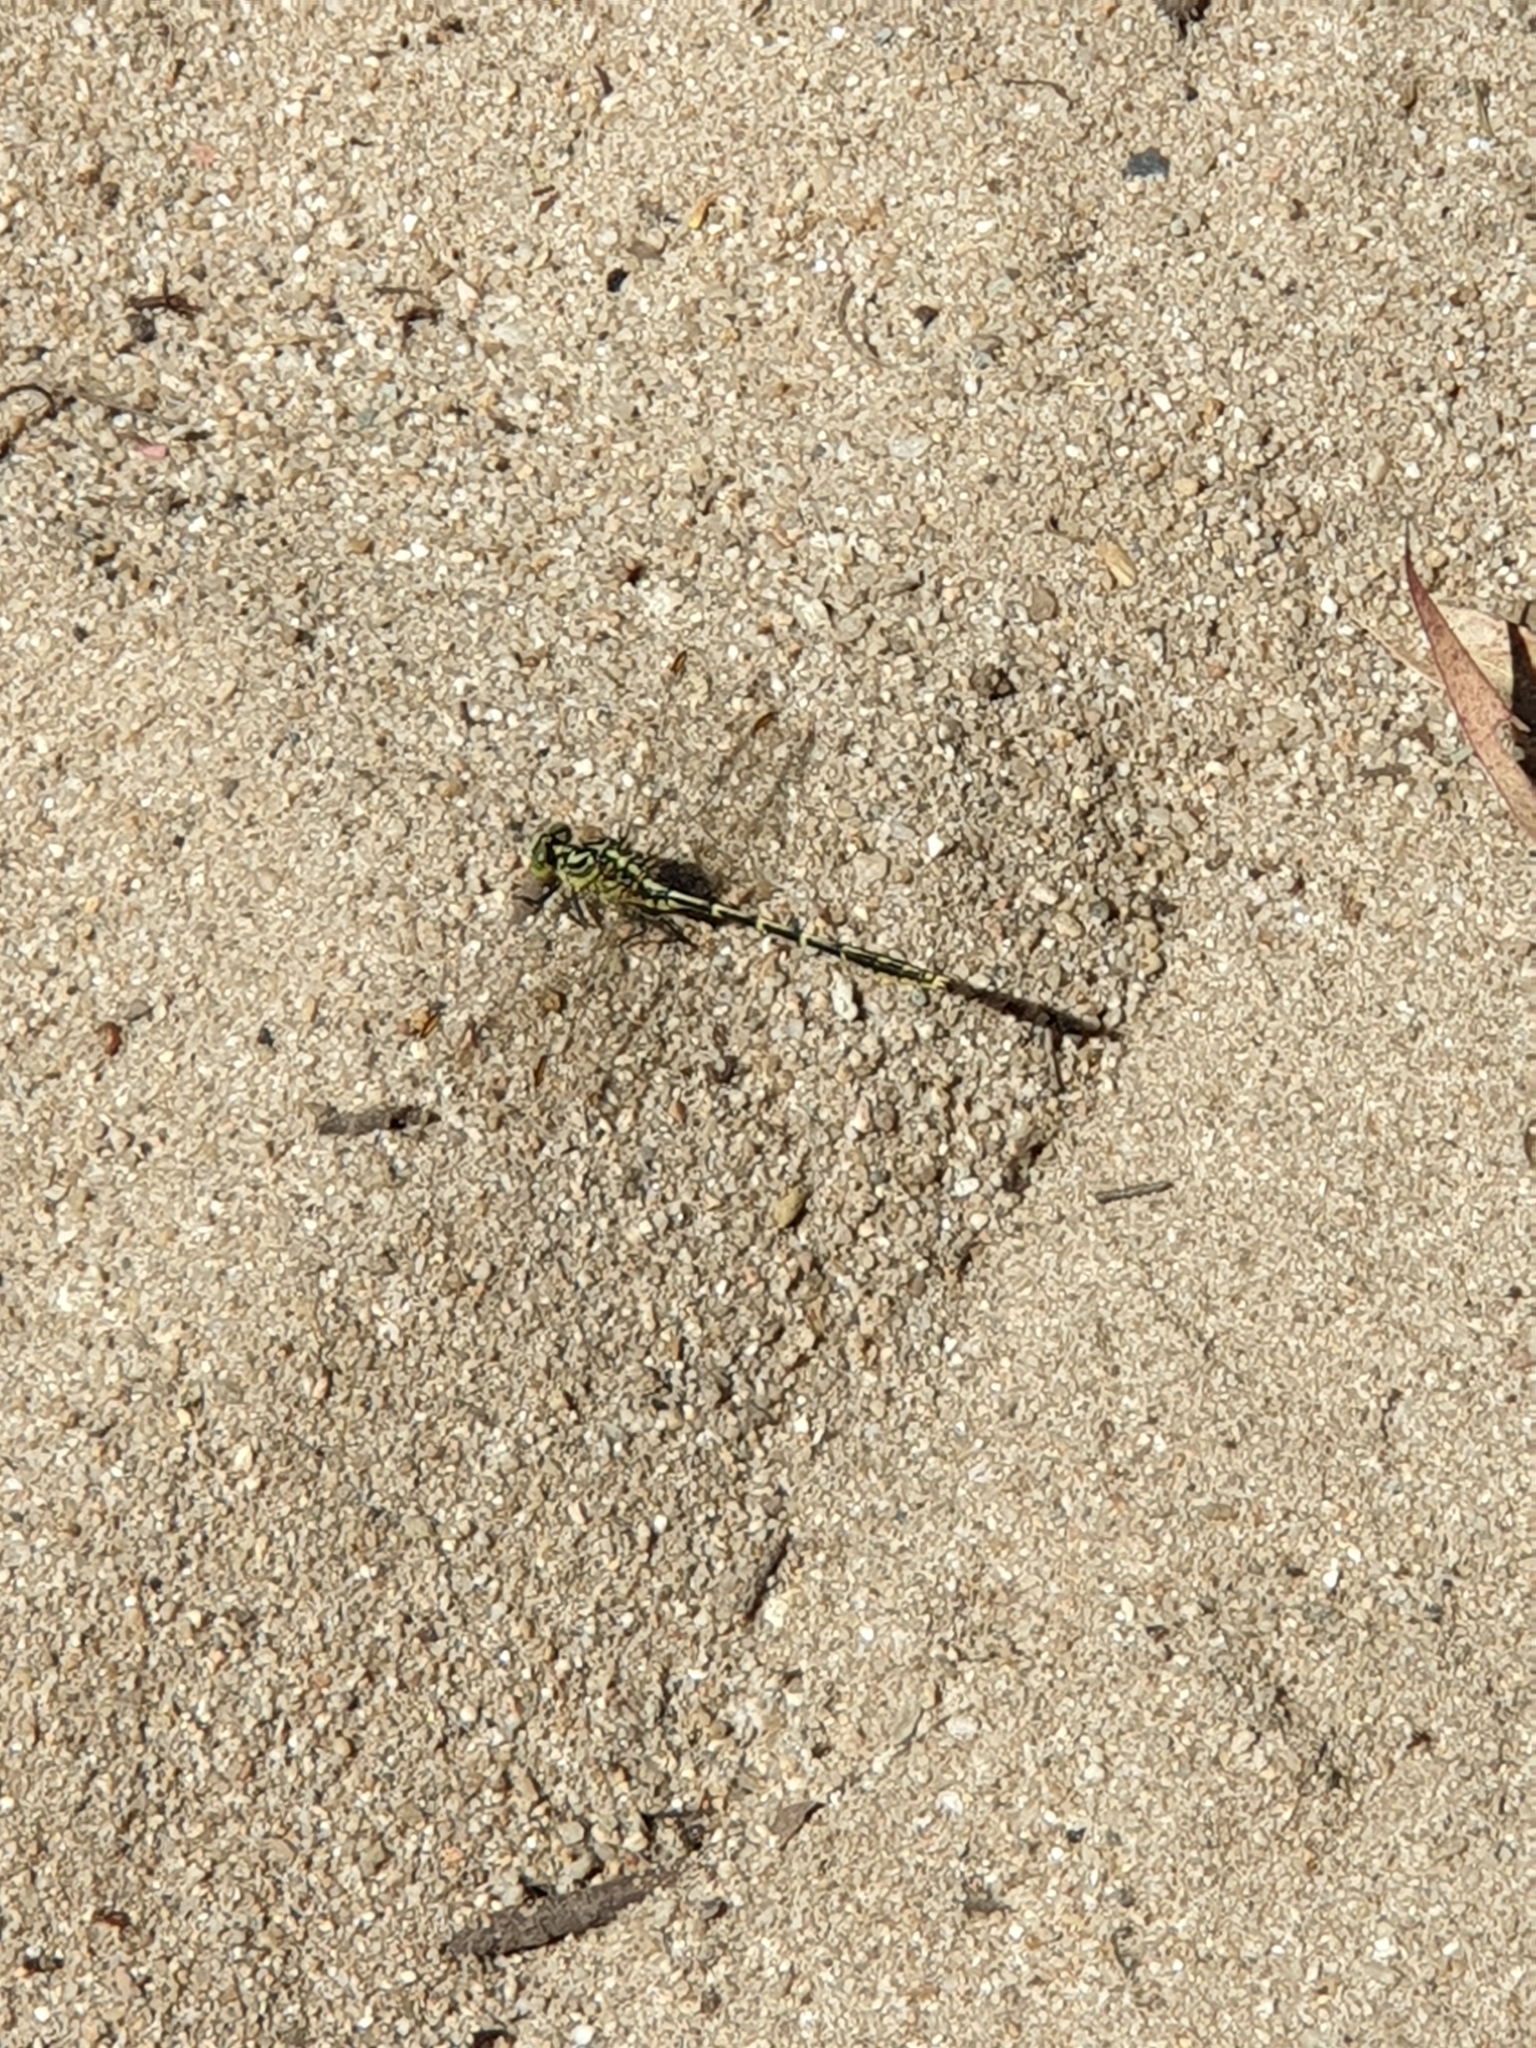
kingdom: Animalia
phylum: Arthropoda
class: Insecta
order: Odonata
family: Gomphidae
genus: Austrogomphus
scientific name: Austrogomphus guerini
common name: Yellow-striped hunter
